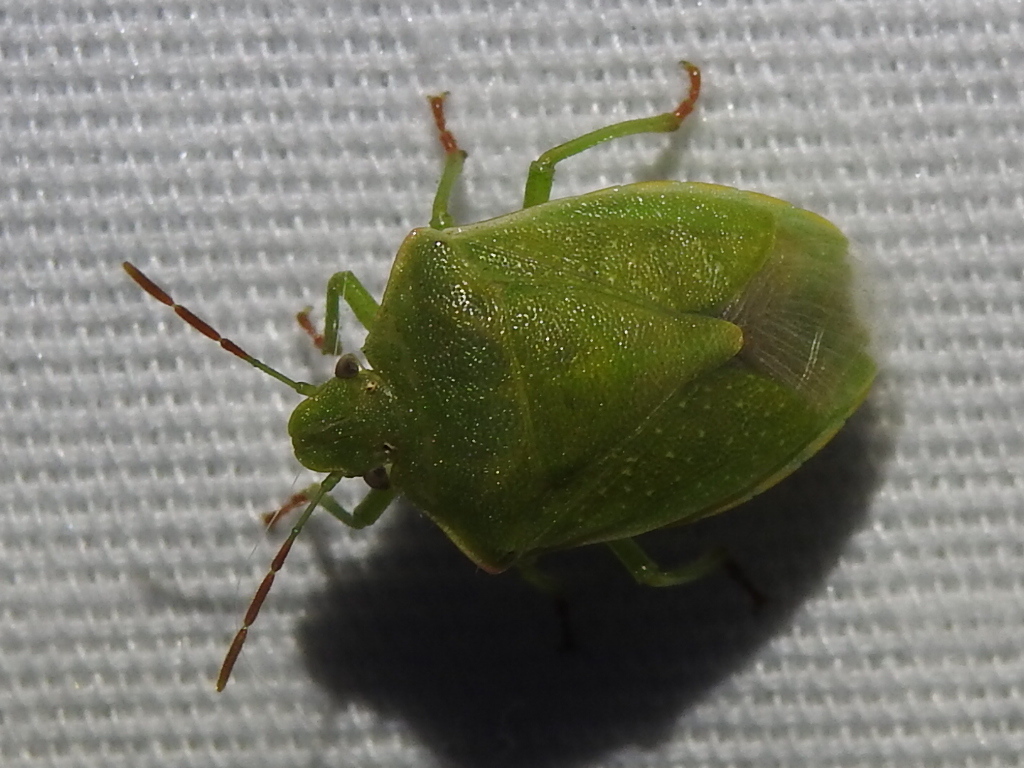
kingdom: Animalia
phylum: Arthropoda
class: Insecta
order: Hemiptera
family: Pentatomidae
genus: Thyanta
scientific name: Thyanta accerra
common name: Stink bug
